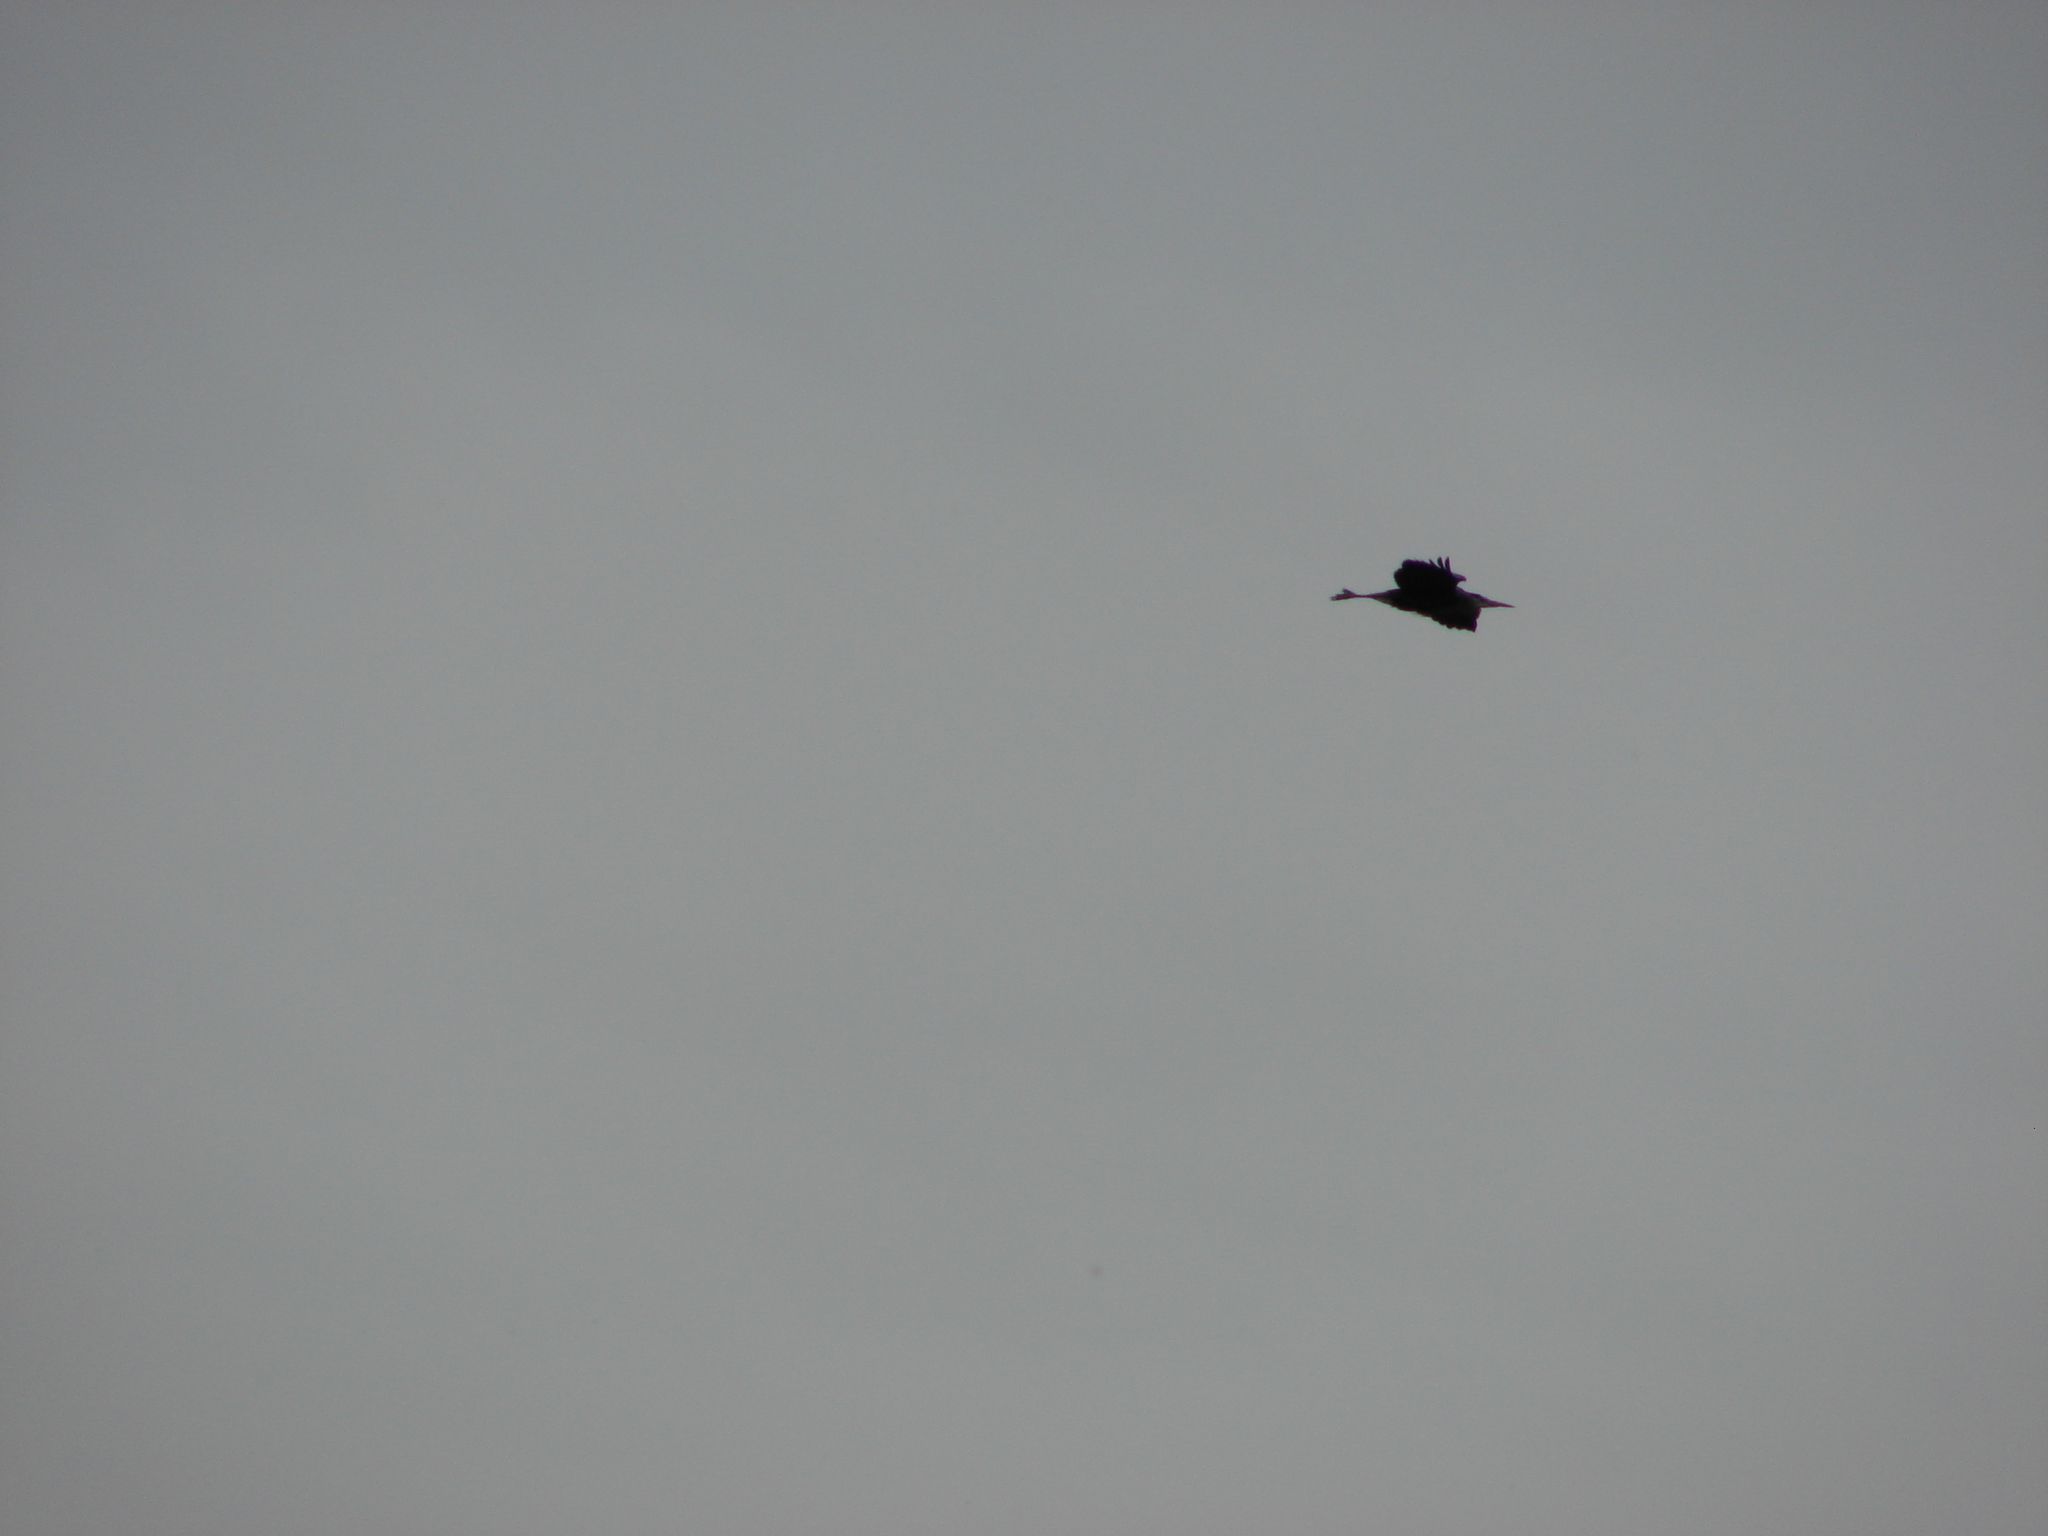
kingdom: Animalia
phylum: Chordata
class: Aves
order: Pelecaniformes
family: Ardeidae
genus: Ardea
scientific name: Ardea herodias
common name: Great blue heron
